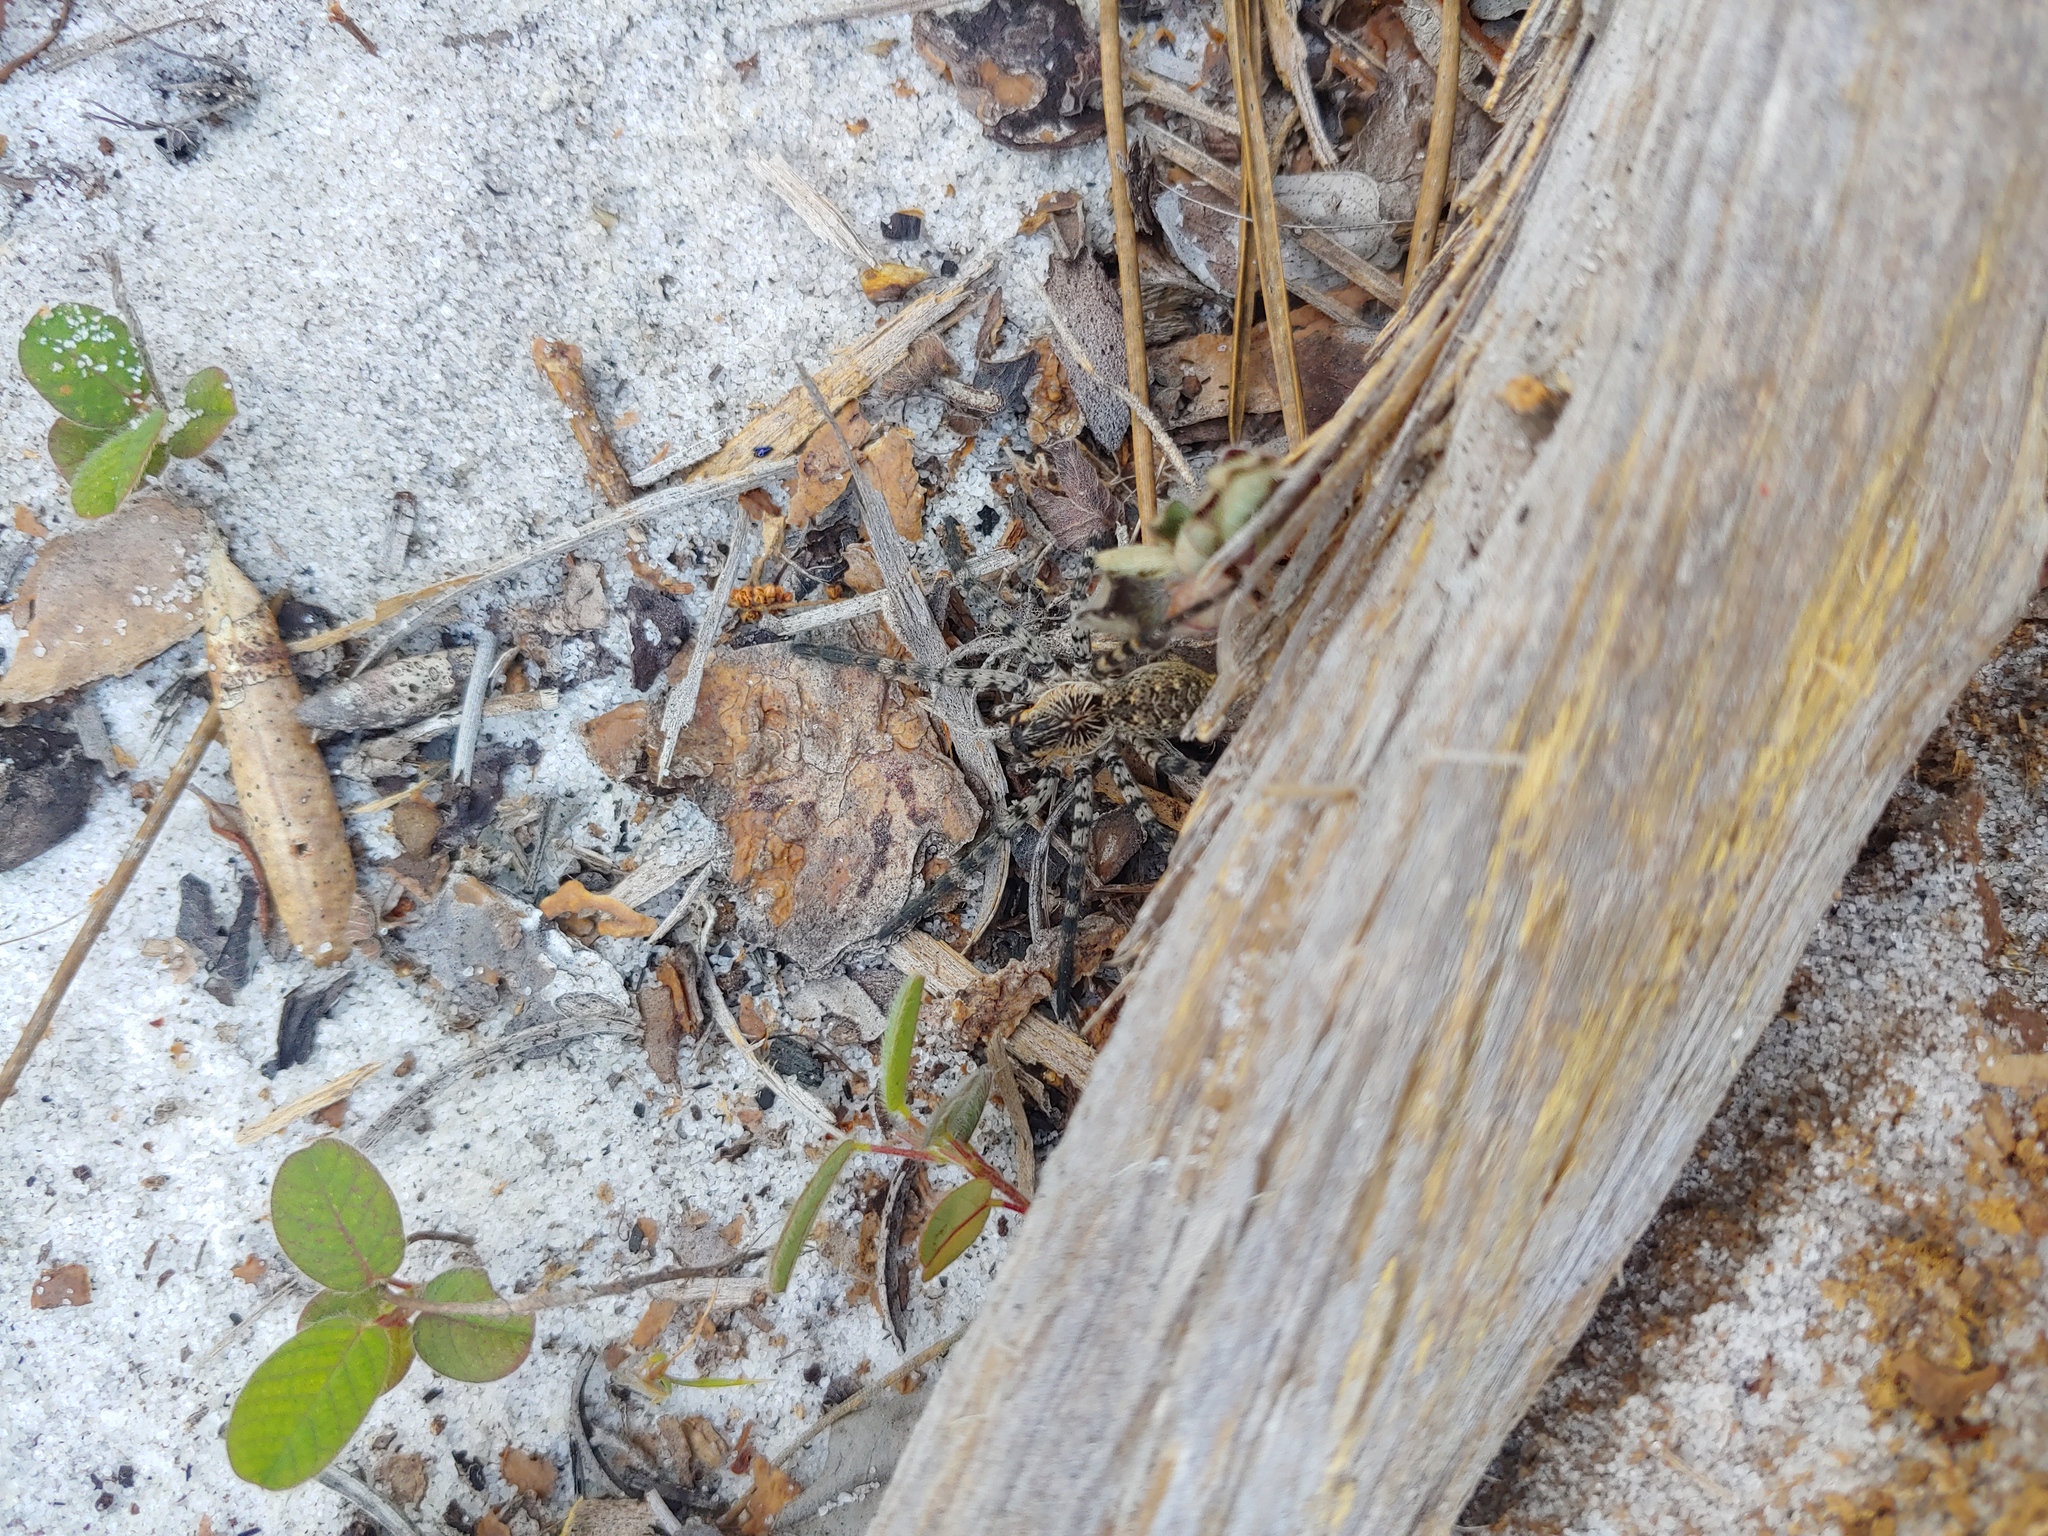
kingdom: Animalia
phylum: Arthropoda
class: Arachnida
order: Araneae
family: Lycosidae
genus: Sosippus
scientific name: Sosippus placidus
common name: Lake placid funnel wolf spider
